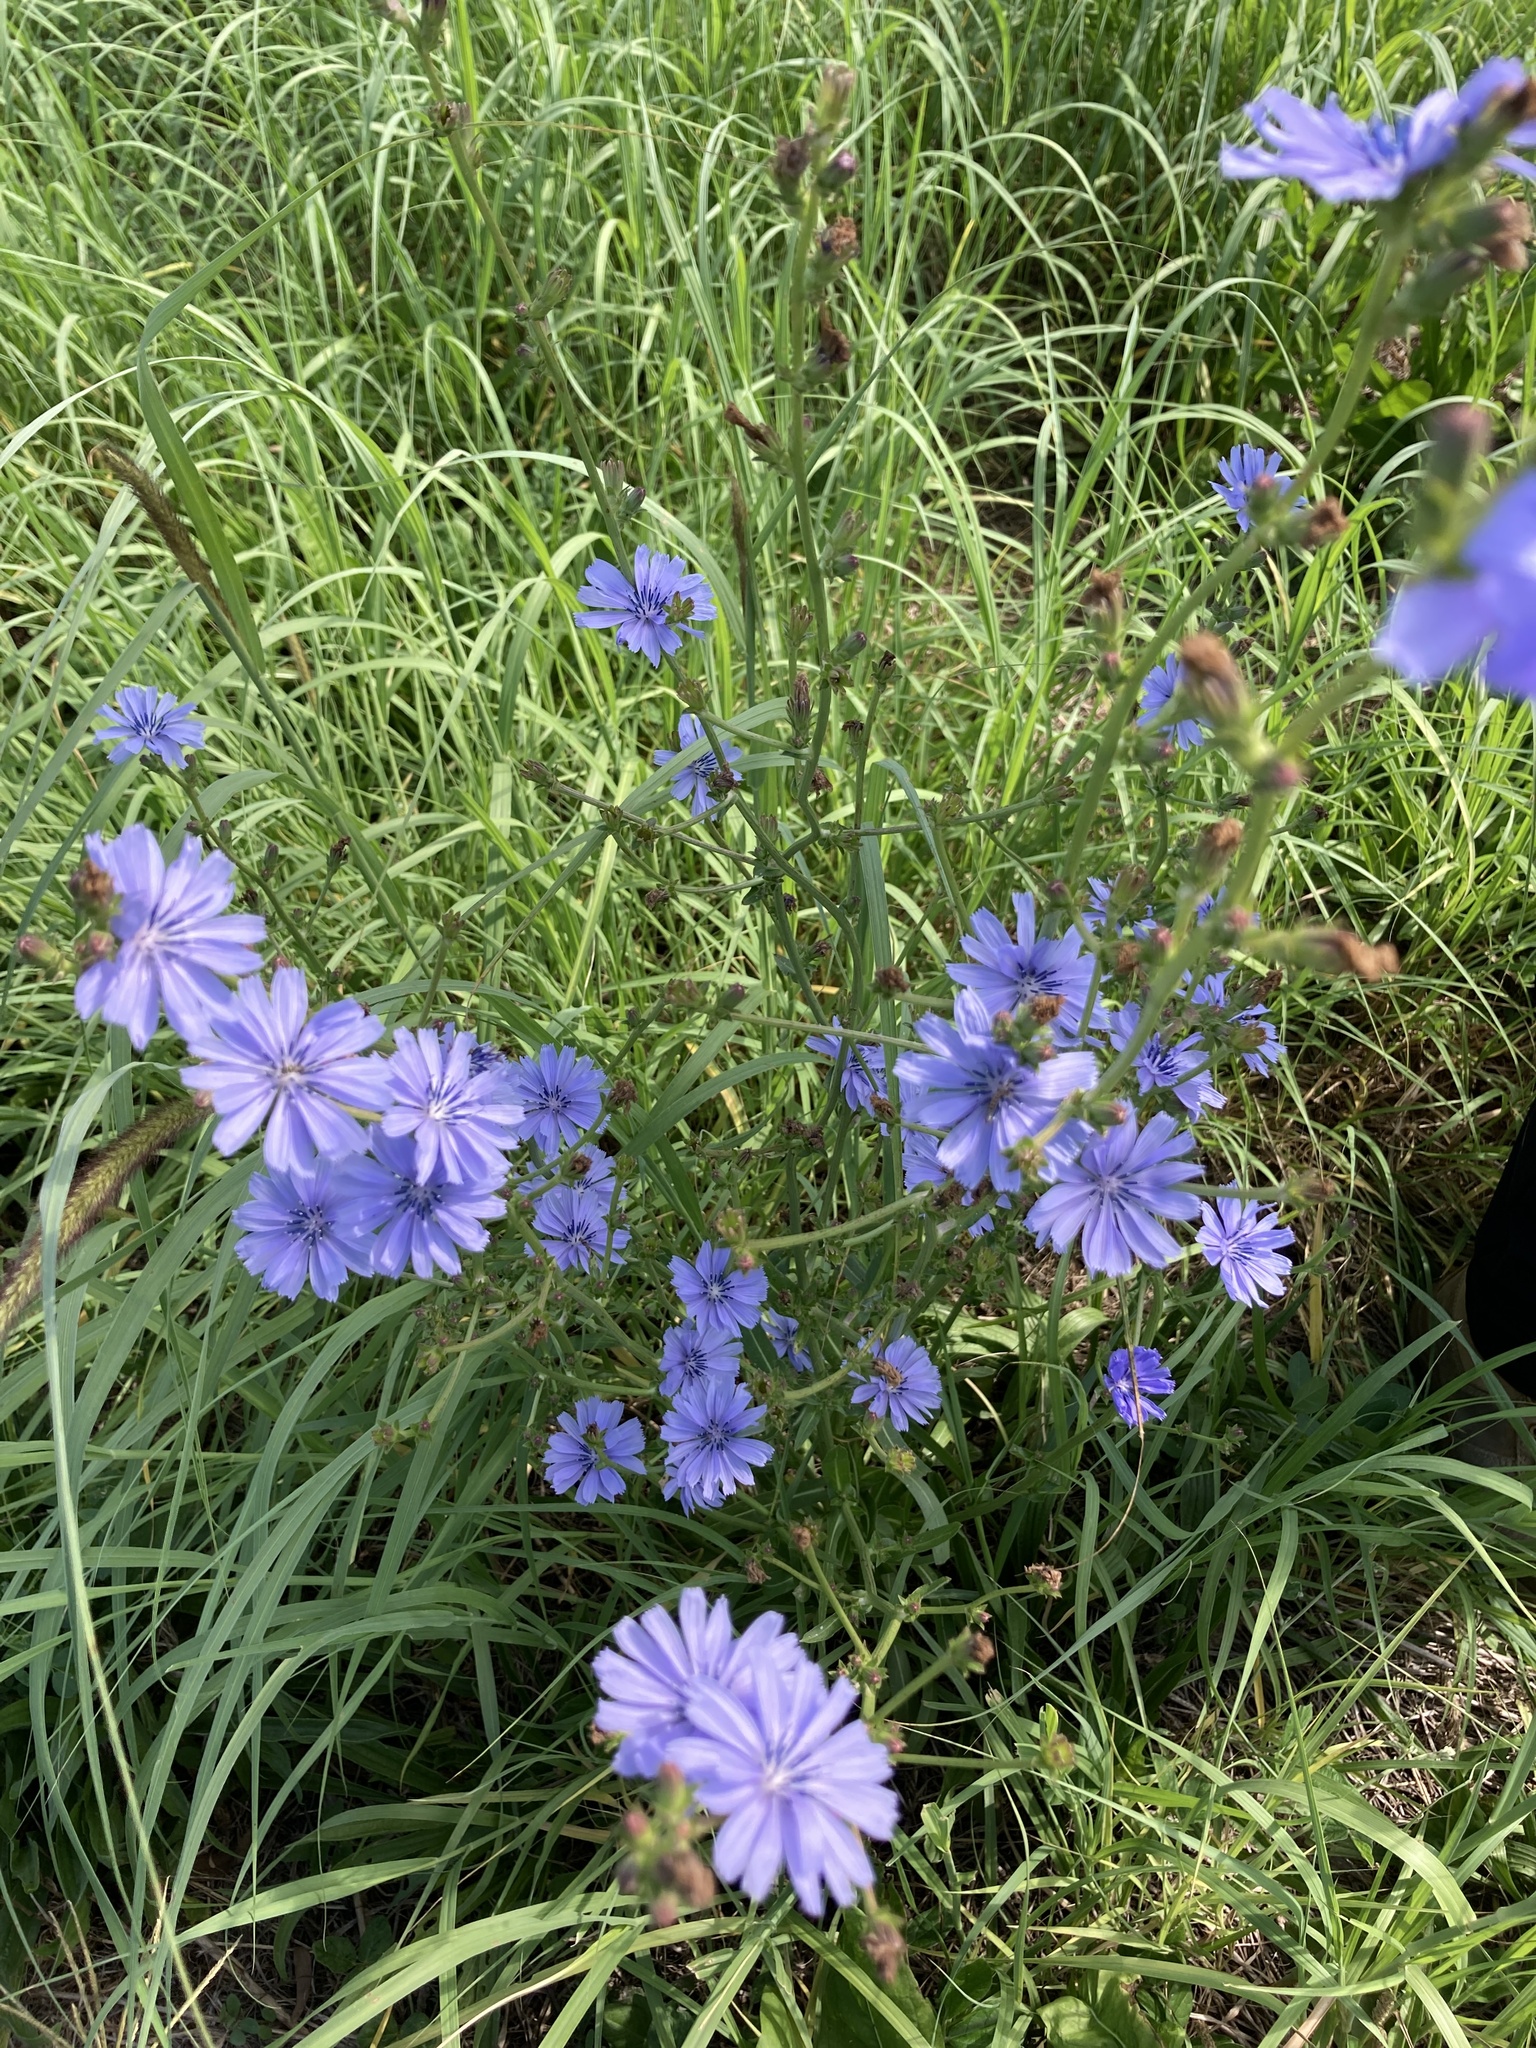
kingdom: Plantae
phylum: Tracheophyta
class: Magnoliopsida
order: Asterales
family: Asteraceae
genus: Cichorium
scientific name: Cichorium intybus
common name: Chicory
